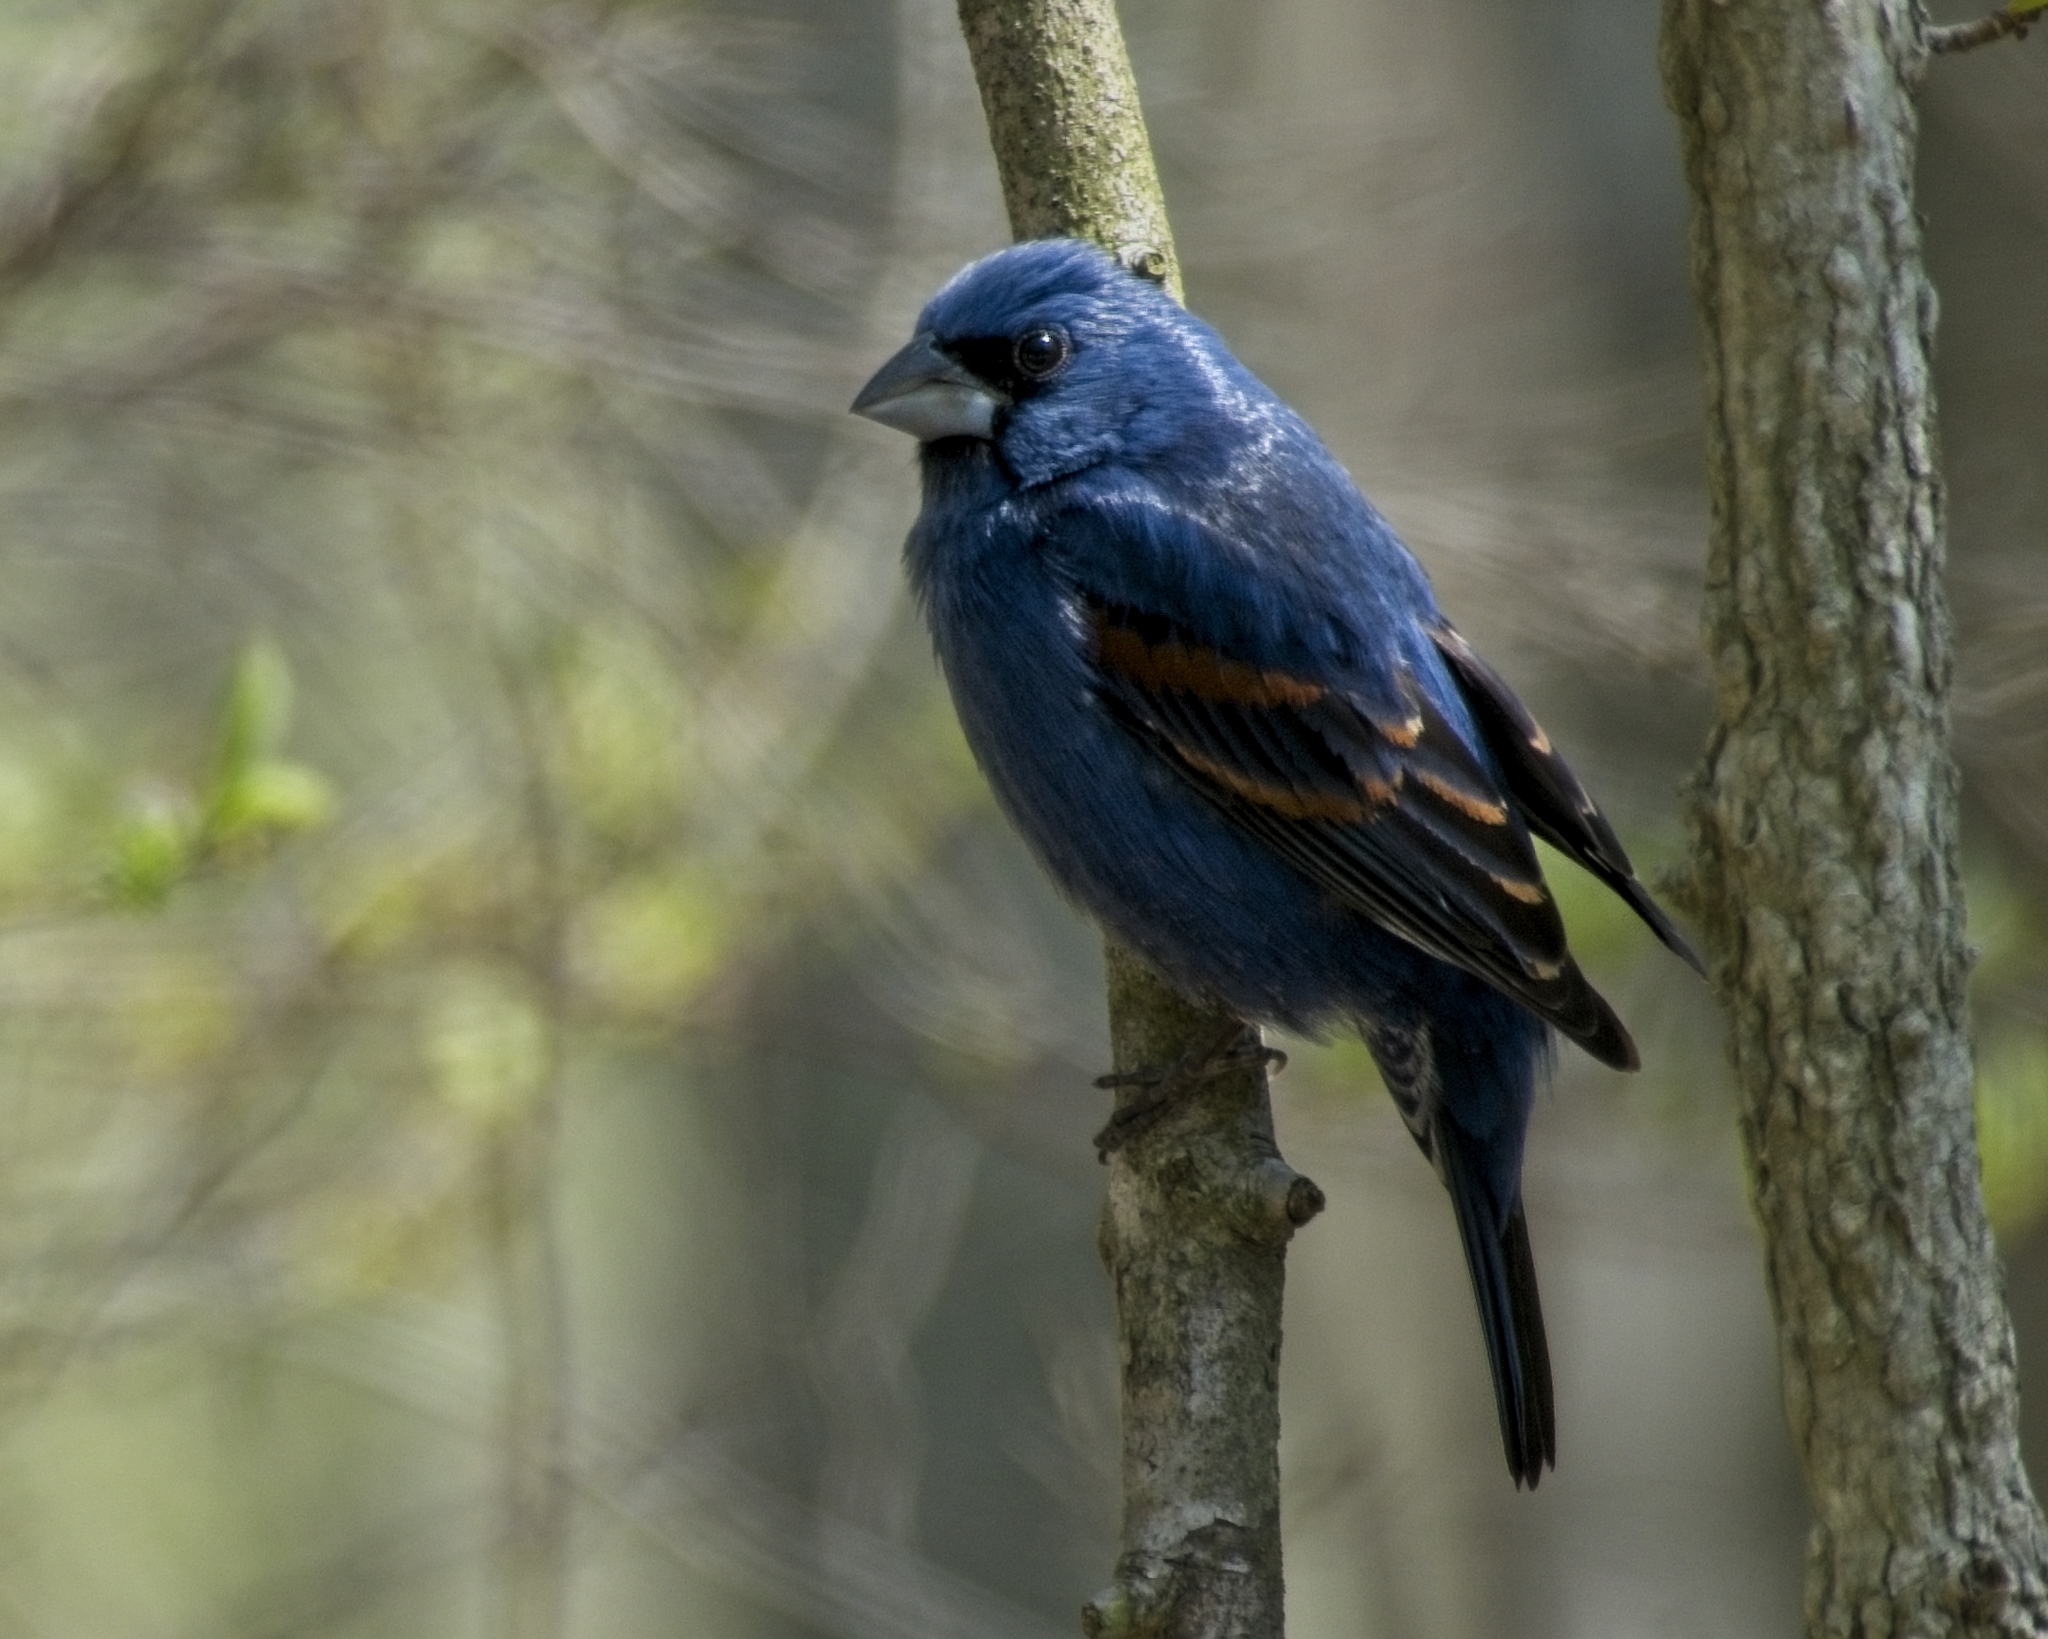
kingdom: Animalia
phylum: Chordata
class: Aves
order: Passeriformes
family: Cardinalidae
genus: Passerina
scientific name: Passerina caerulea
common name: Blue grosbeak
